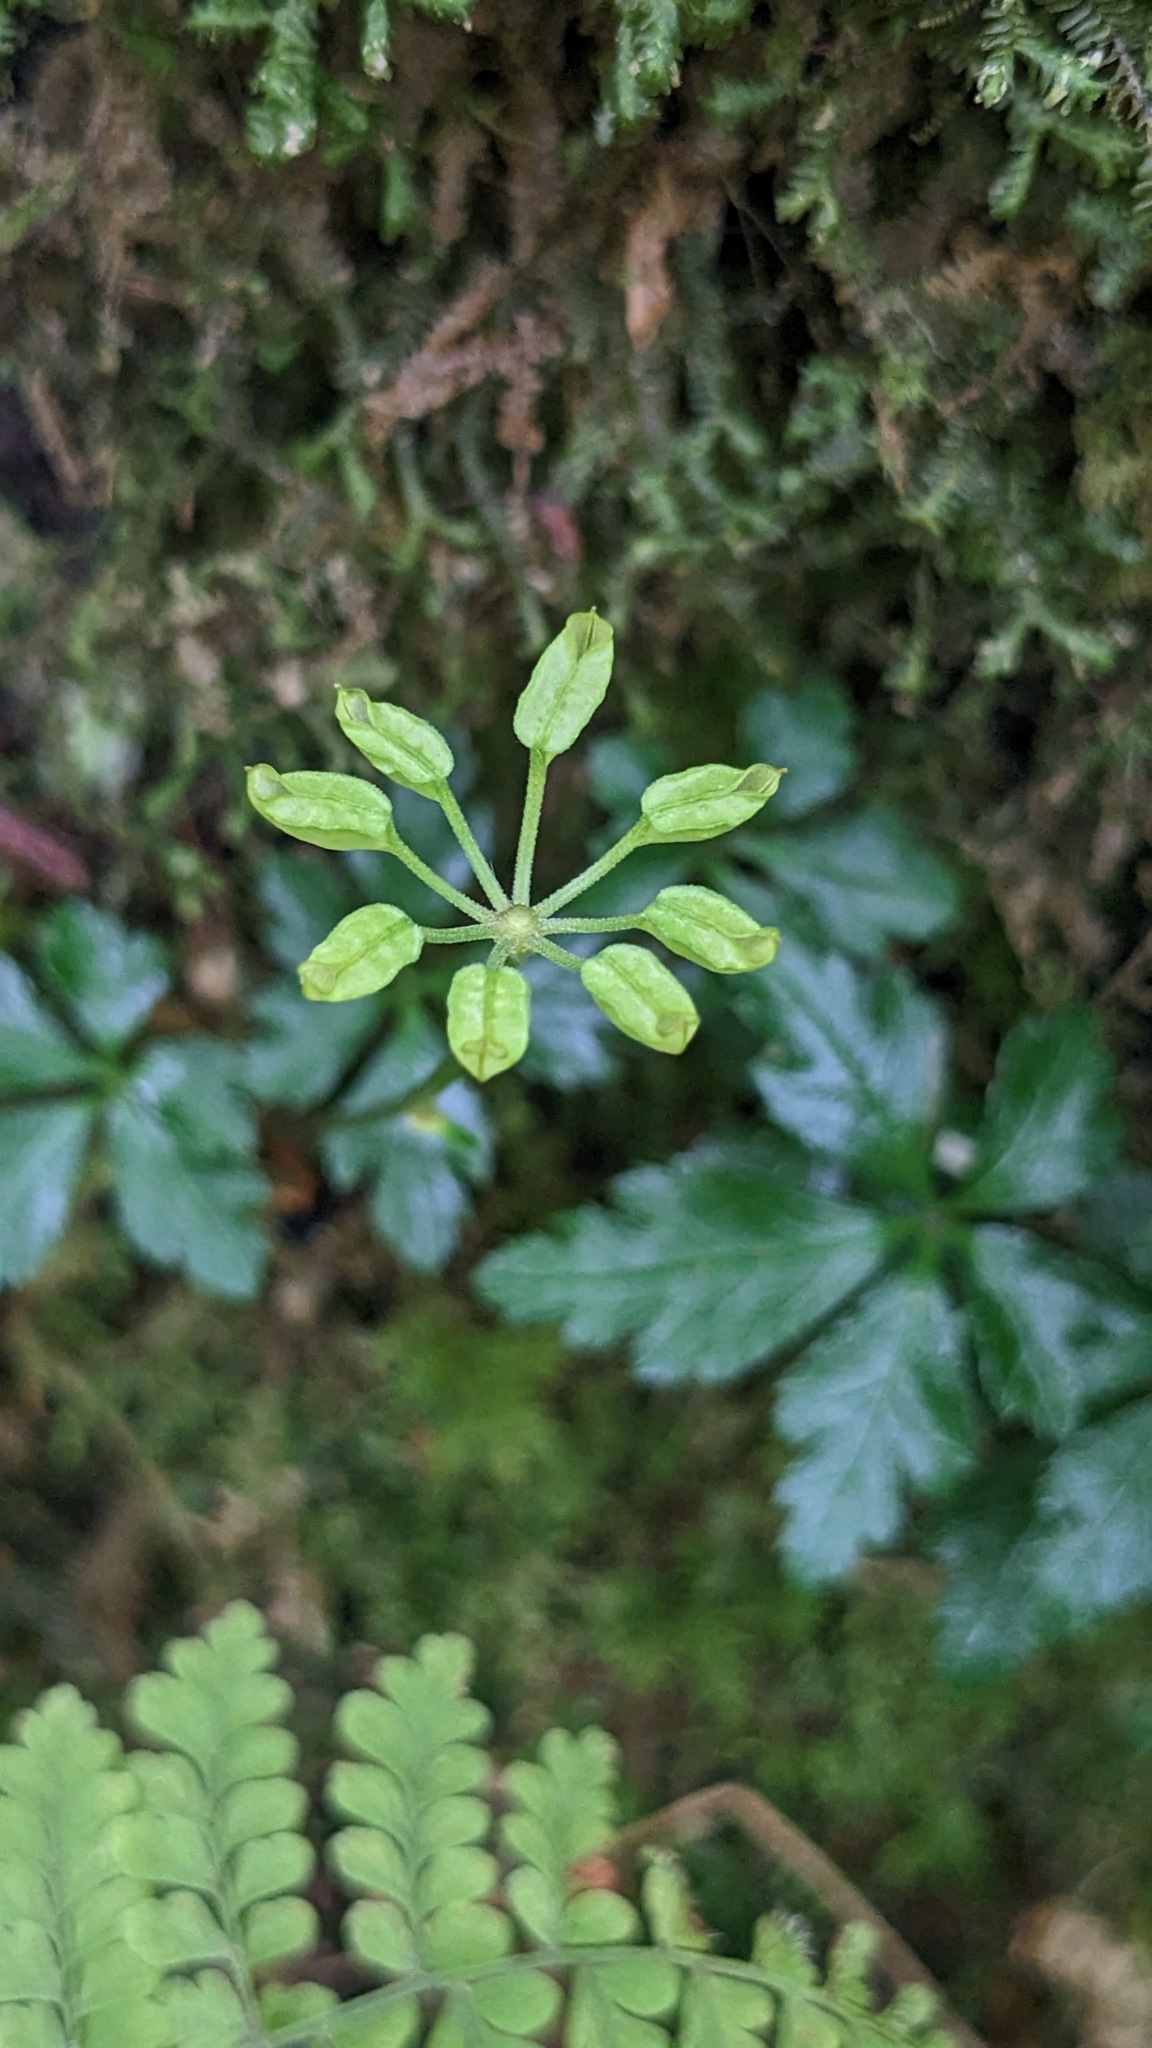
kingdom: Plantae
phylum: Tracheophyta
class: Magnoliopsida
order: Ranunculales
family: Ranunculaceae
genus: Coptis
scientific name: Coptis quinquefolia
